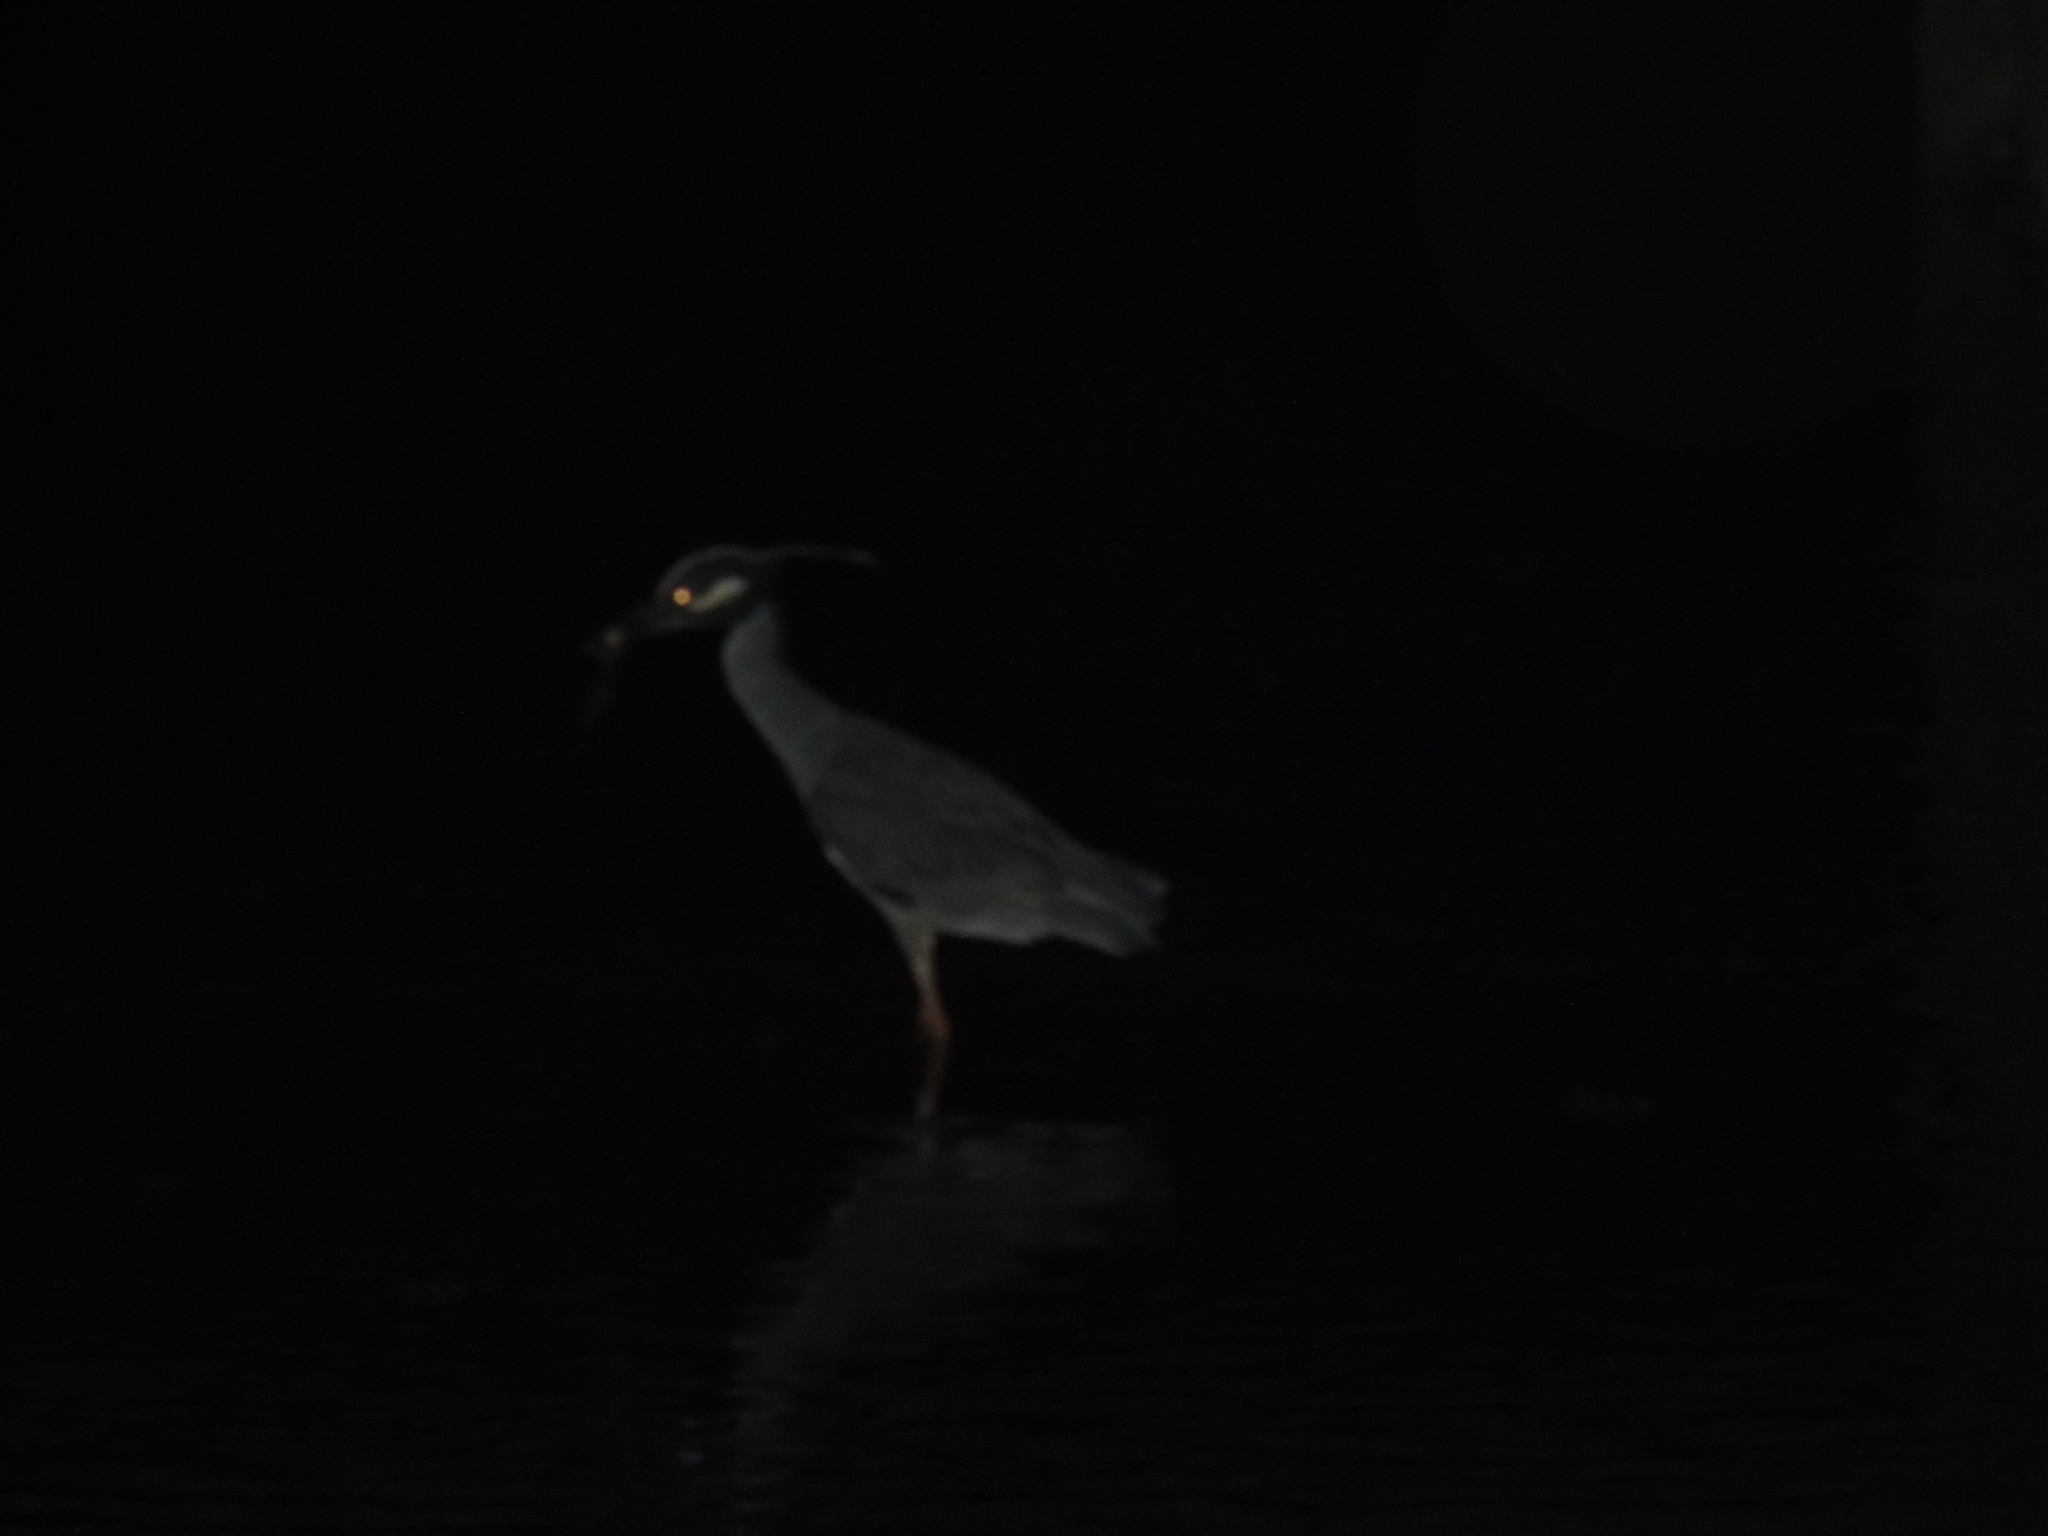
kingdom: Animalia
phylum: Chordata
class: Aves
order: Pelecaniformes
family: Ardeidae
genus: Nyctanassa
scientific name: Nyctanassa violacea
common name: Yellow-crowned night heron
